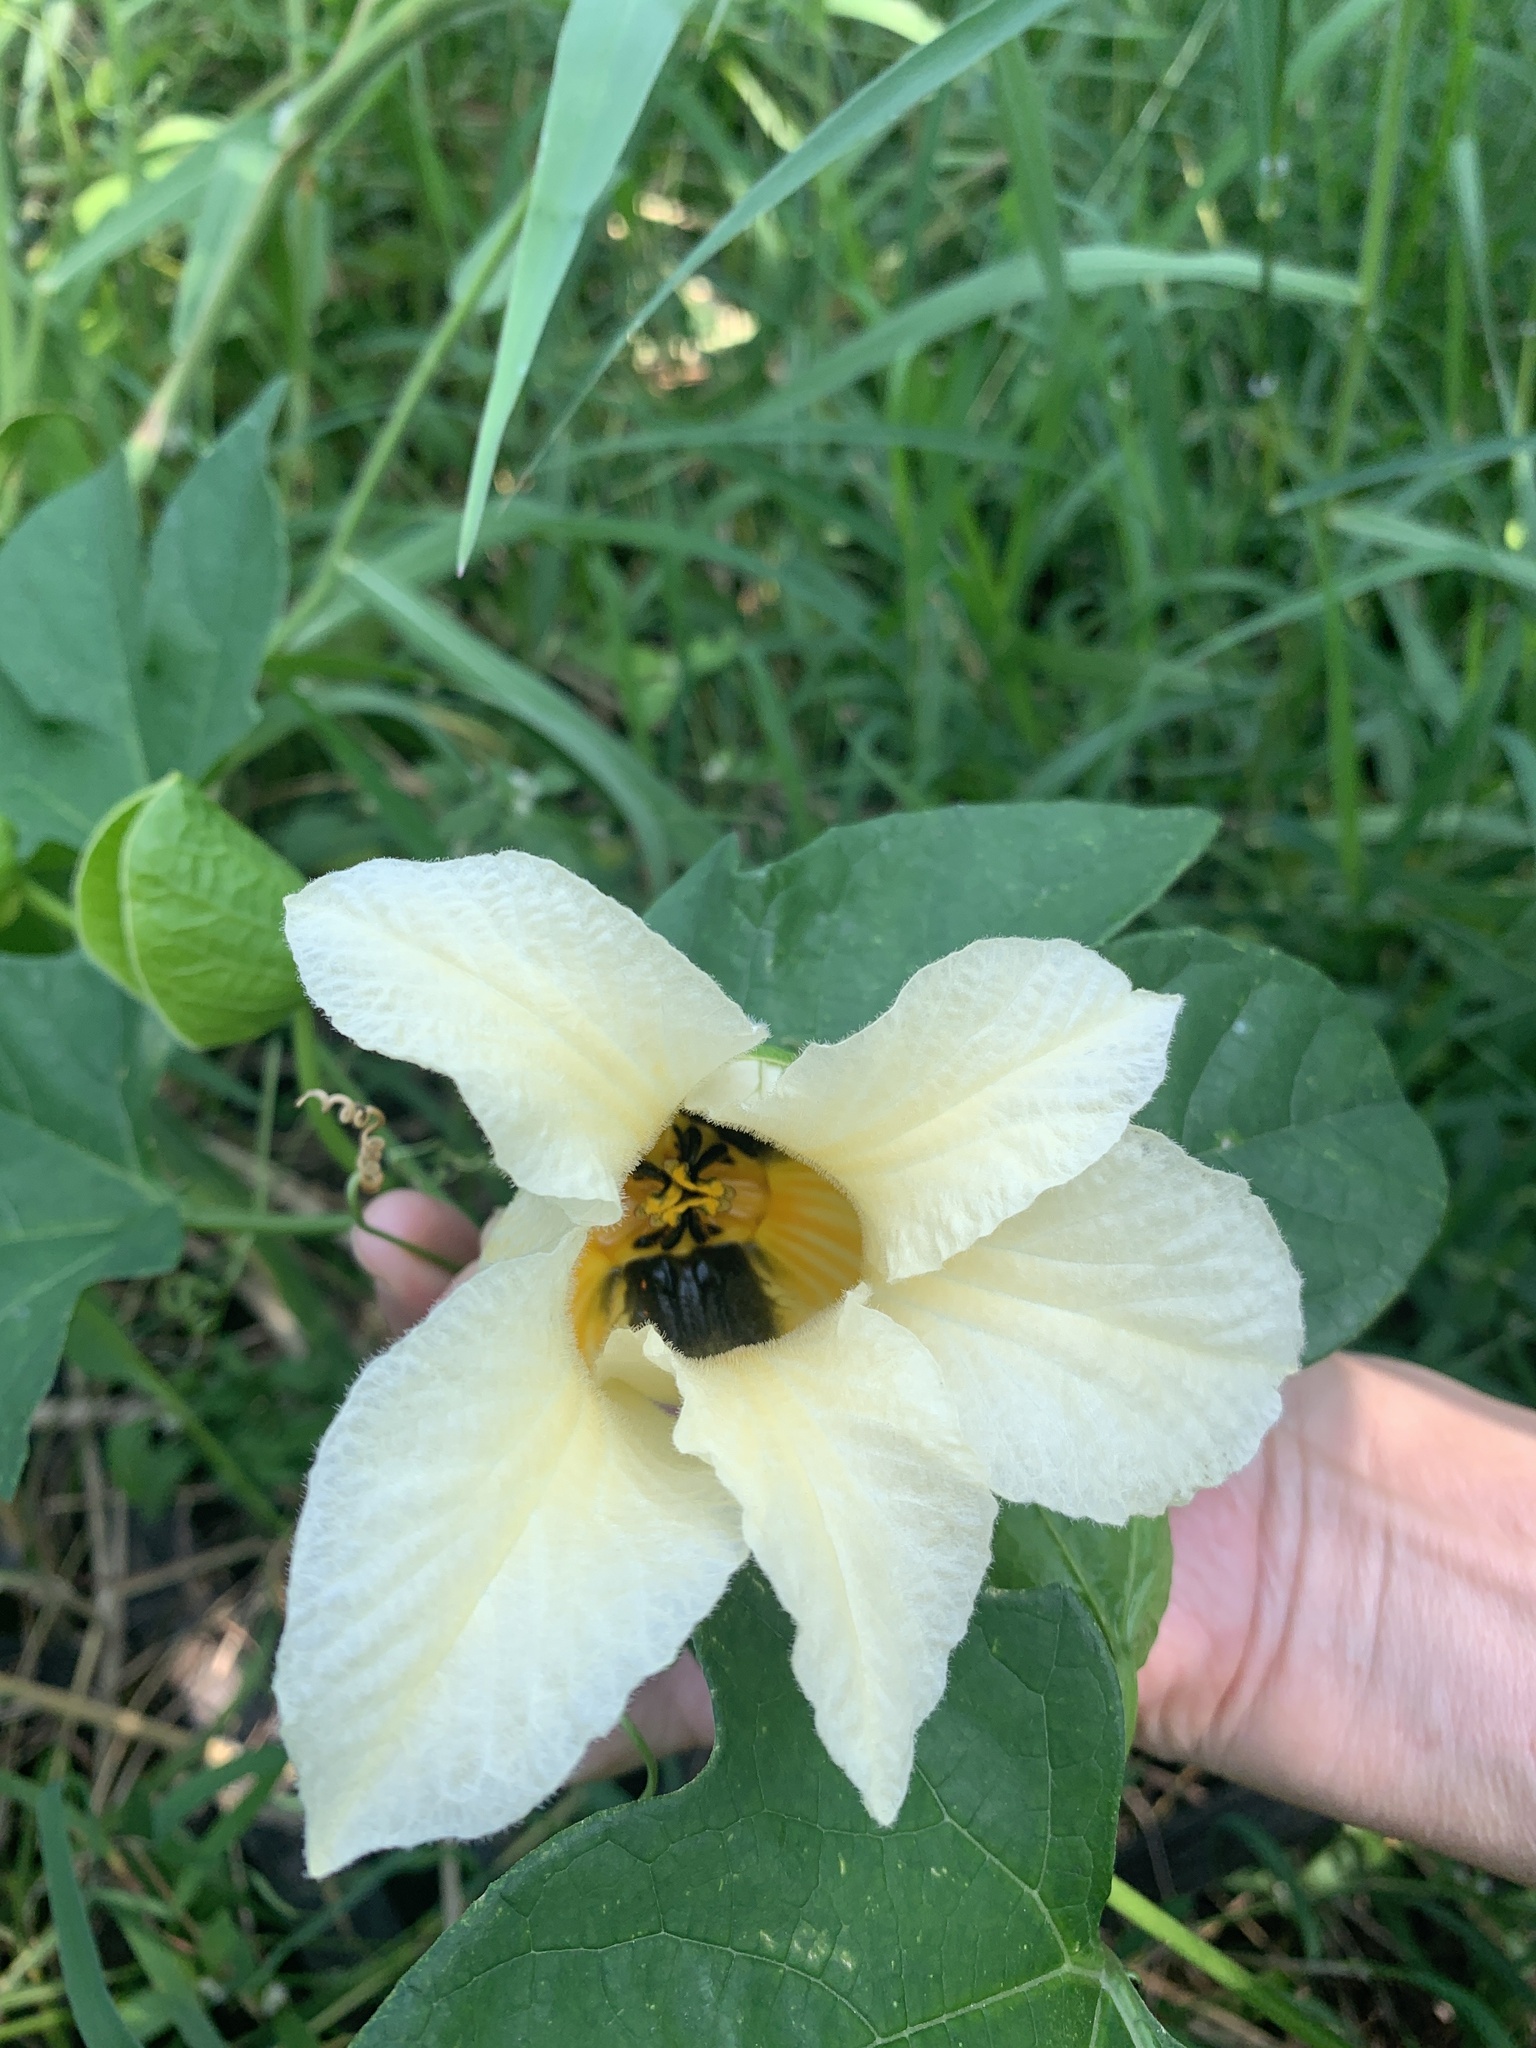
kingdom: Plantae
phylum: Tracheophyta
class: Magnoliopsida
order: Cucurbitales
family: Cucurbitaceae
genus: Momordica
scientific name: Momordica cochinchinensis
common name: Chinese bitter-cucumber
